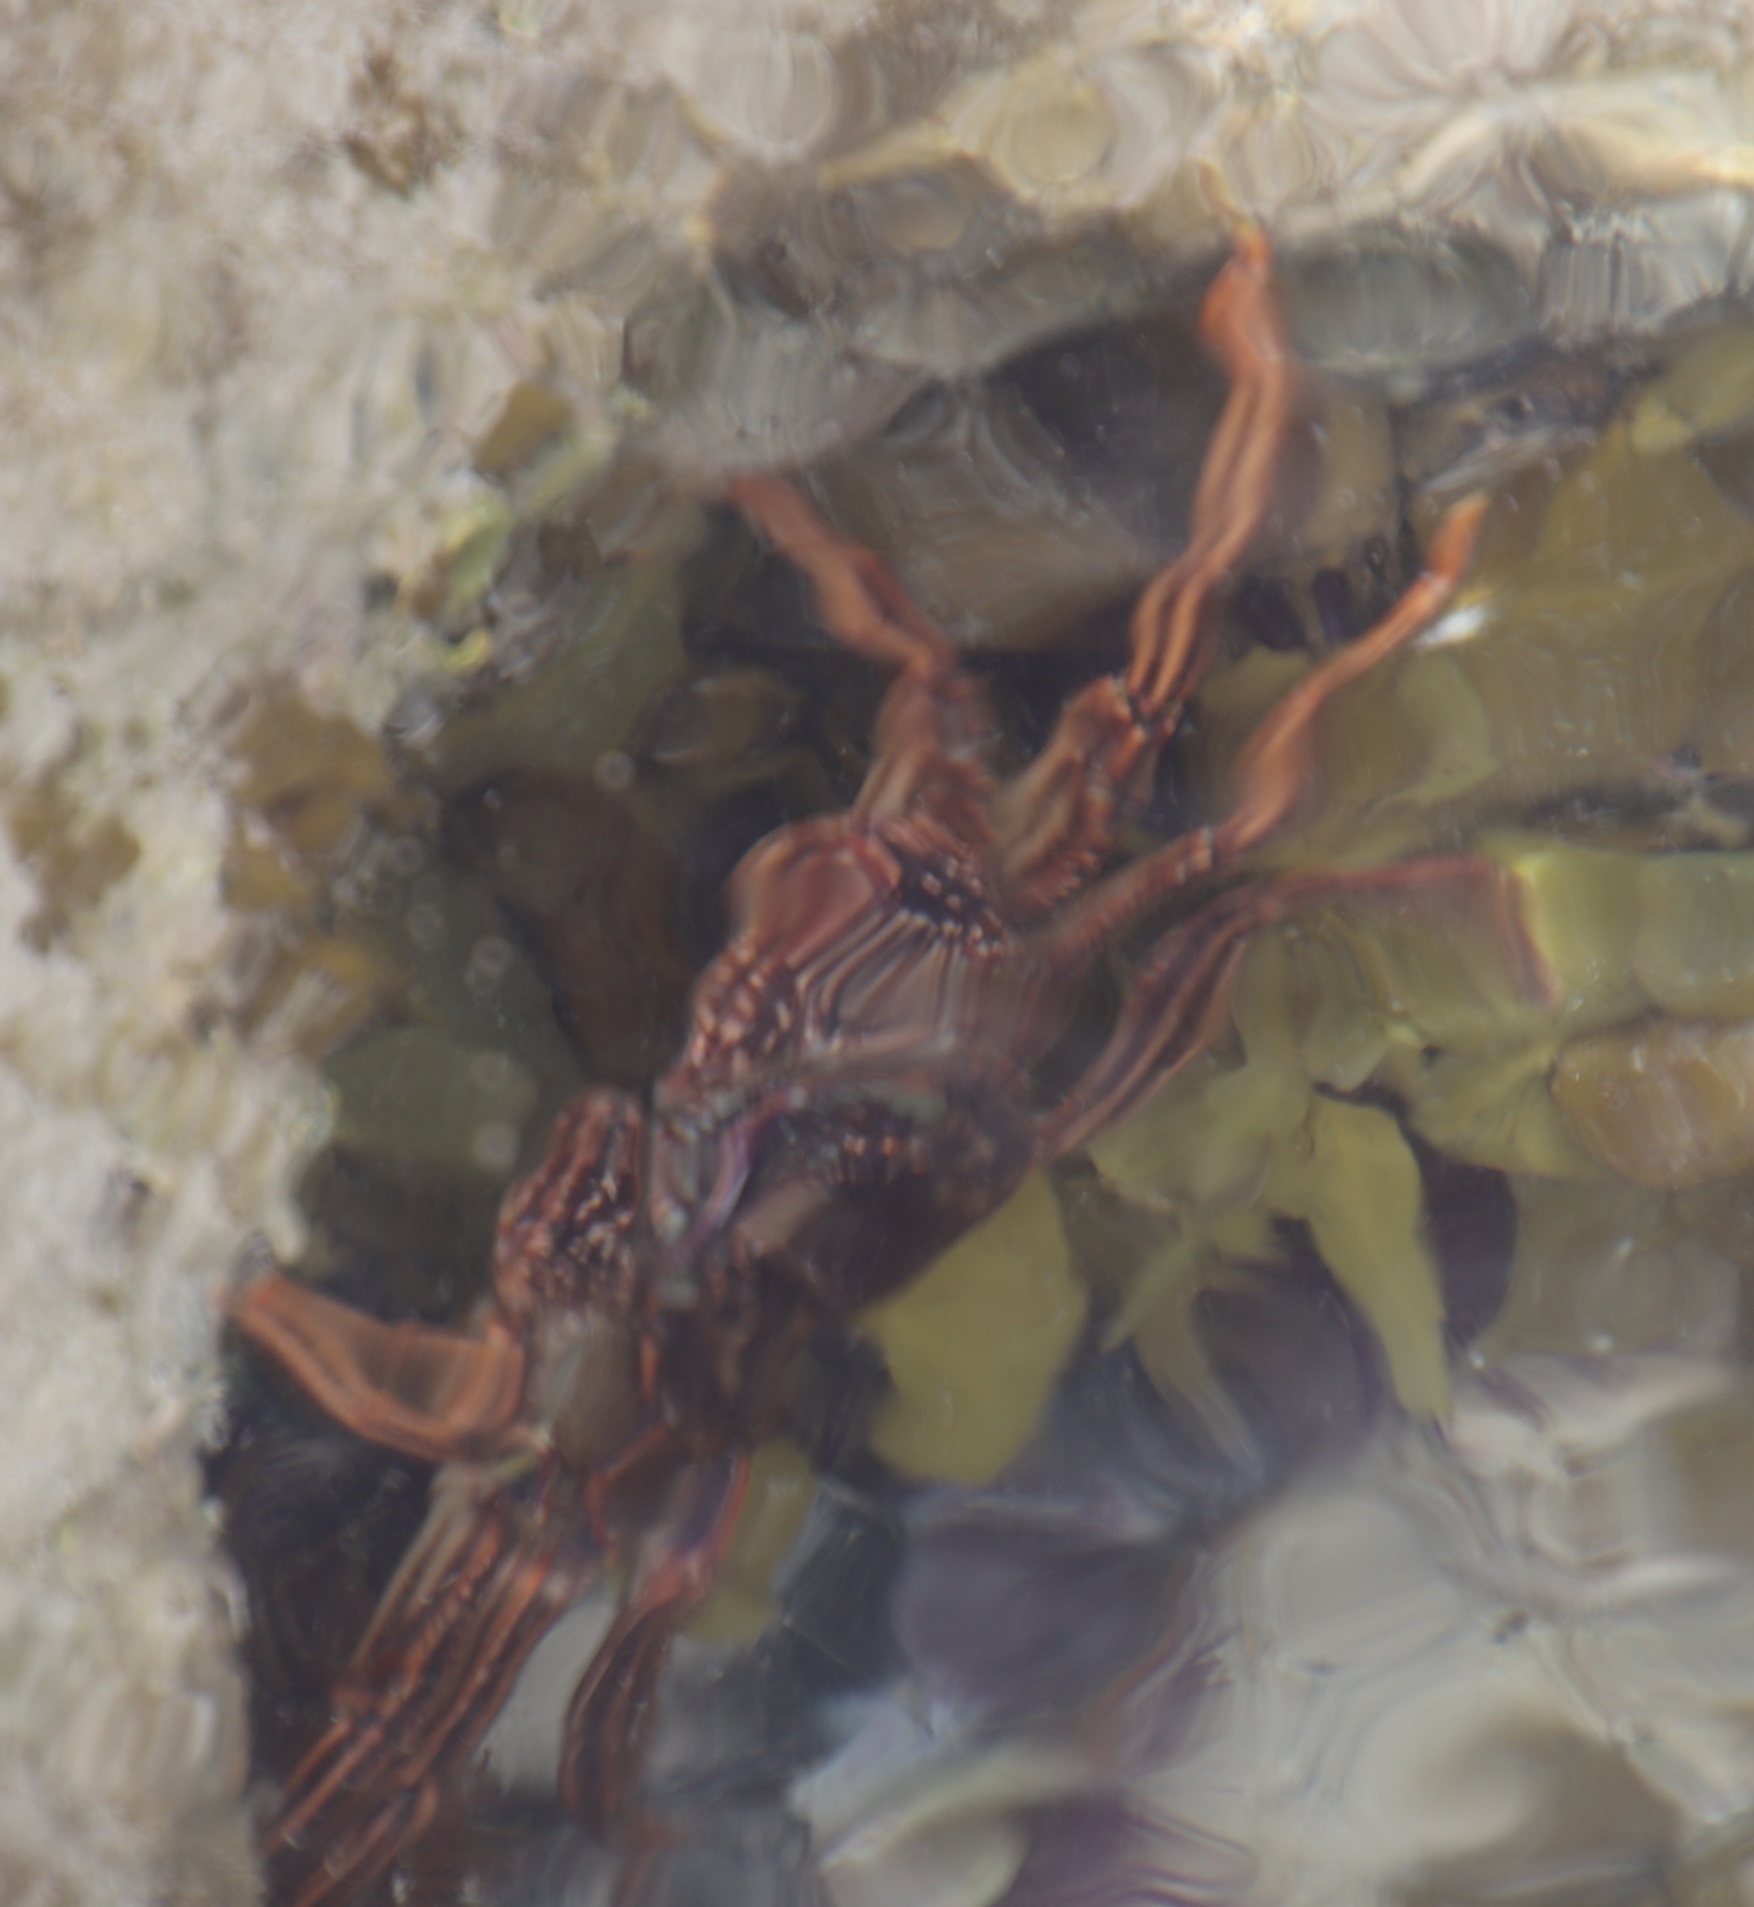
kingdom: Animalia
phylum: Arthropoda
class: Malacostraca
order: Decapoda
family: Plagusiidae
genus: Guinusia
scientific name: Guinusia chabrus
